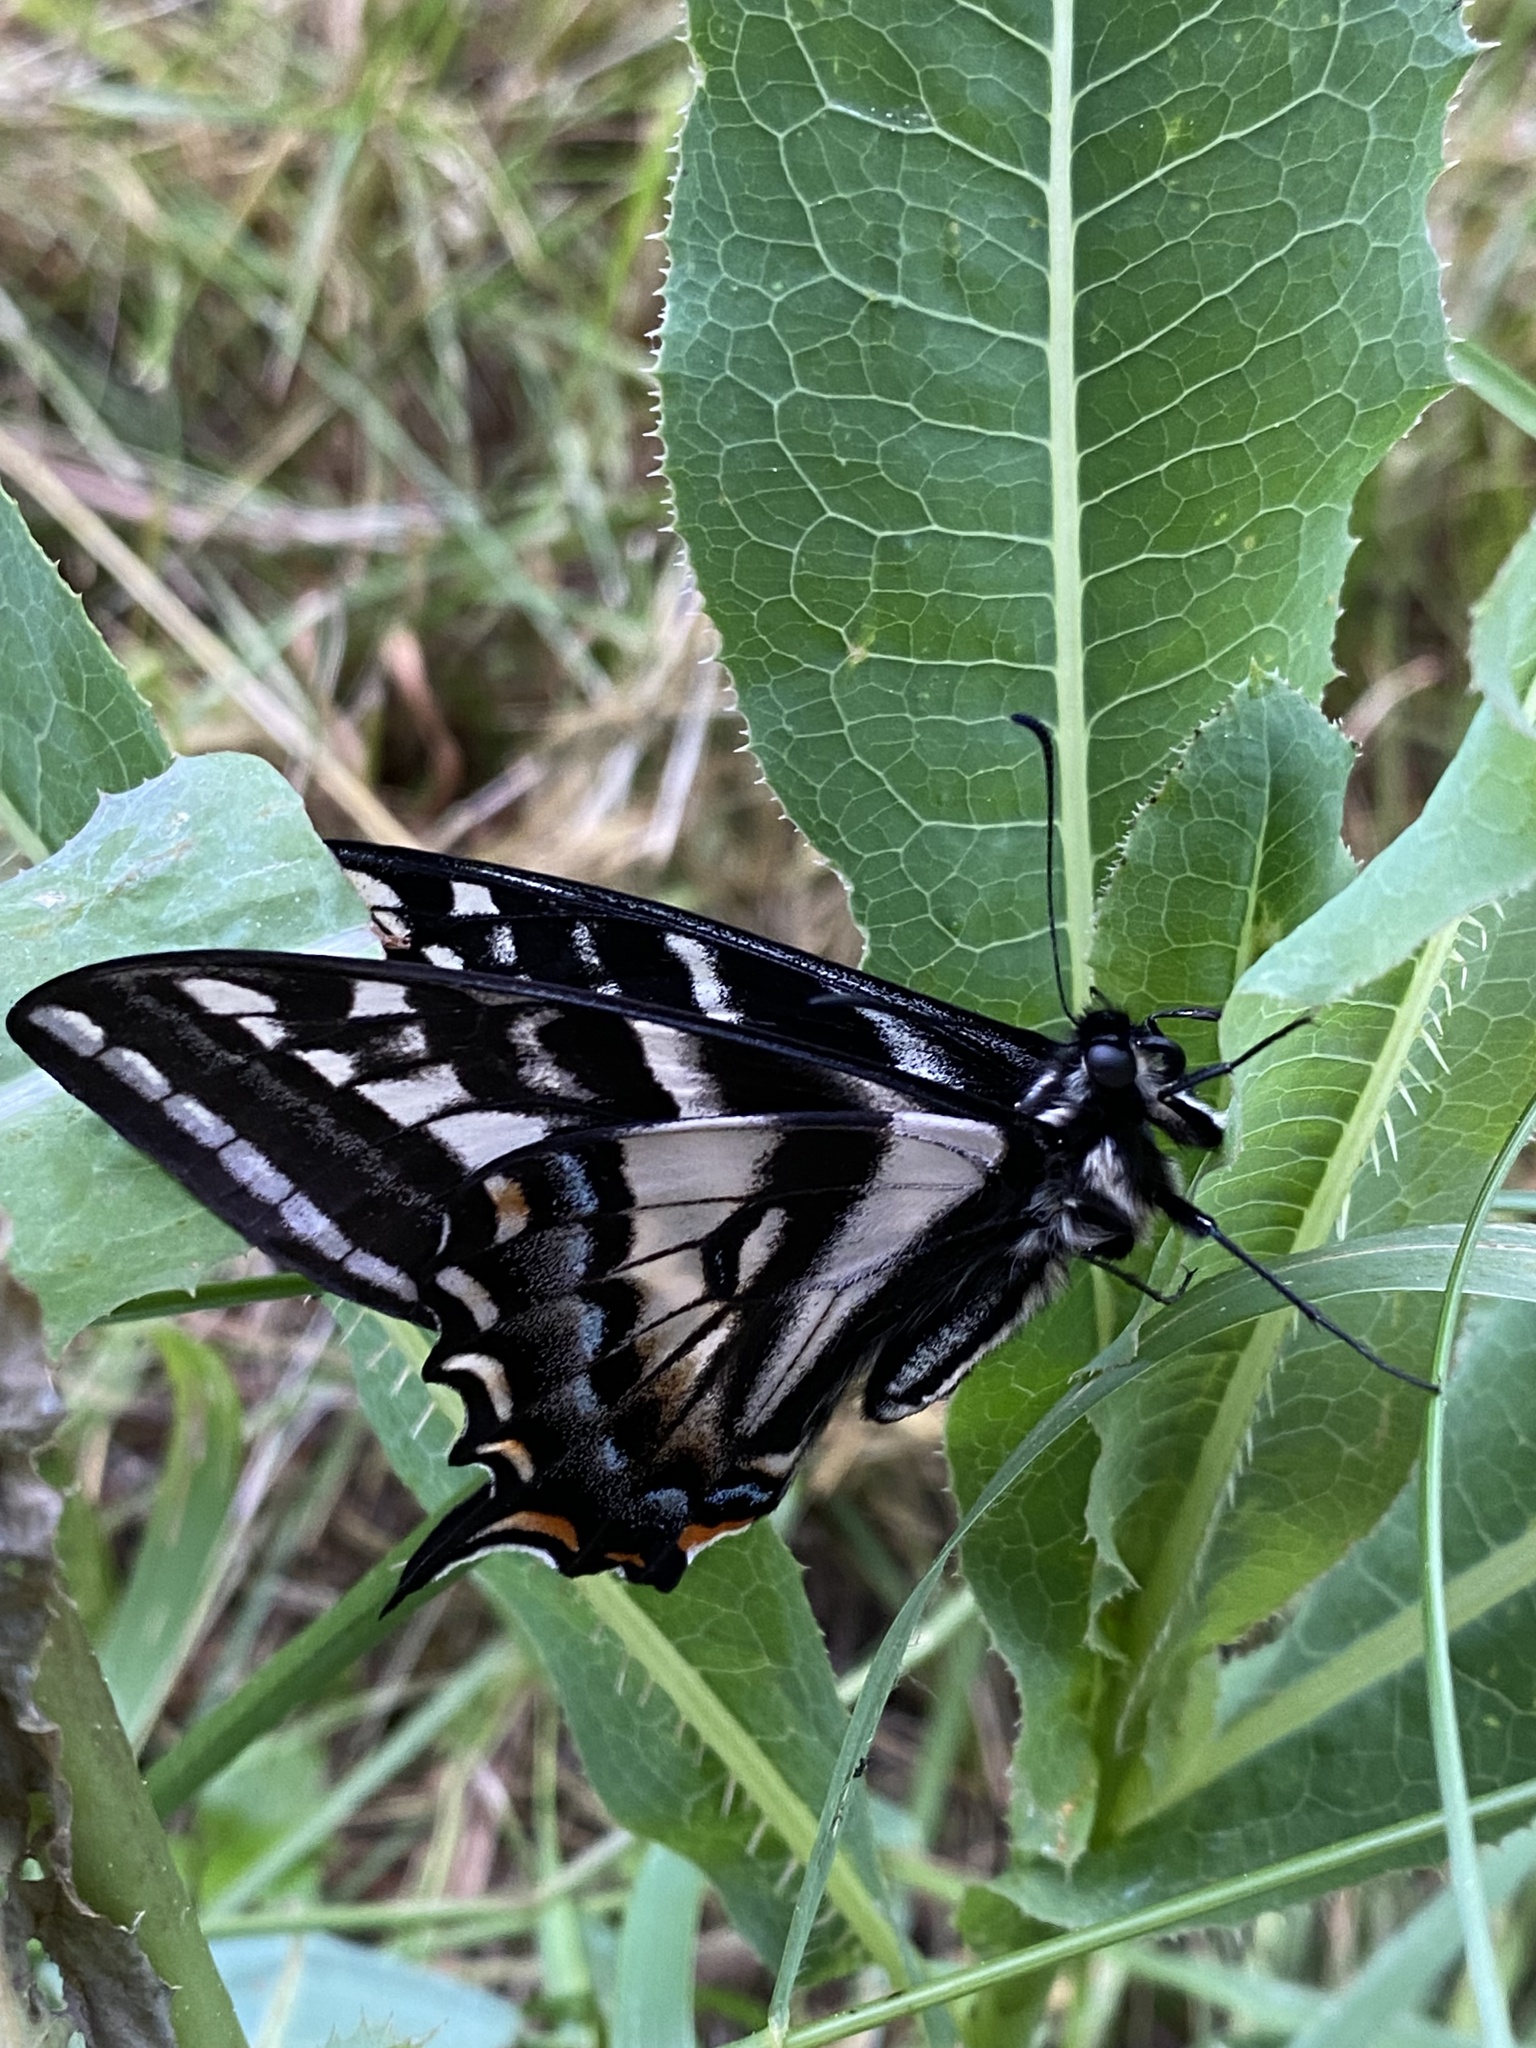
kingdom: Animalia
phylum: Arthropoda
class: Insecta
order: Lepidoptera
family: Papilionidae
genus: Papilio
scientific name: Papilio eurymedon
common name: Pale tiger swallowtail
